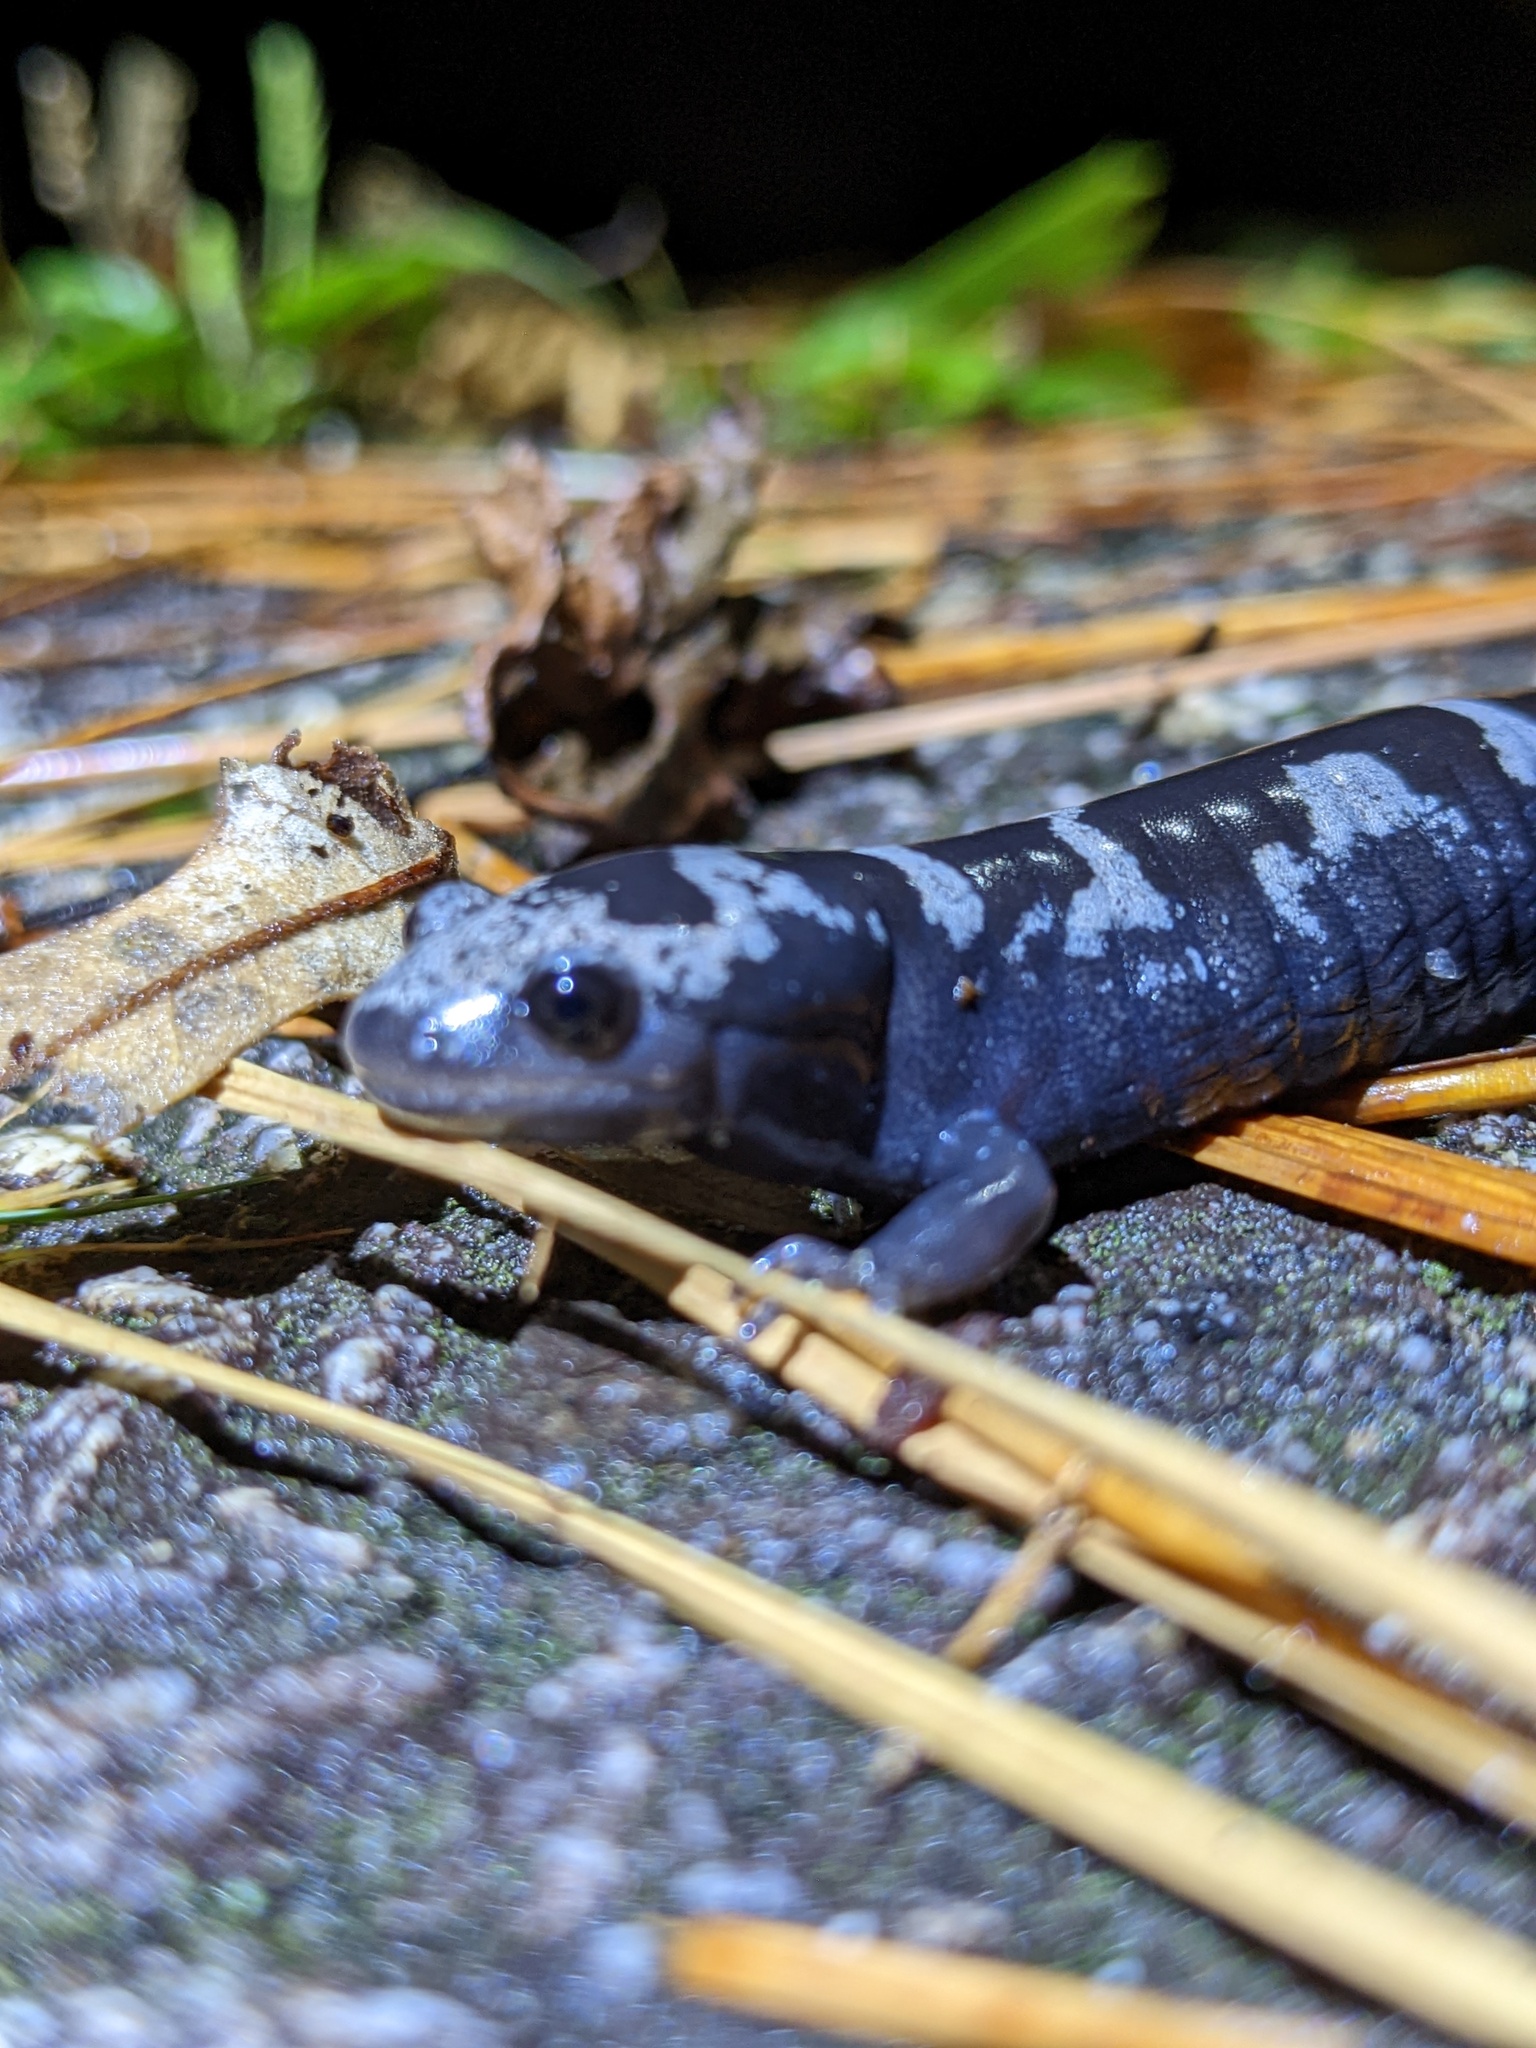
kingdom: Animalia
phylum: Chordata
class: Amphibia
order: Caudata
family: Ambystomatidae
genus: Ambystoma
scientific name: Ambystoma opacum
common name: Marbled salamander
